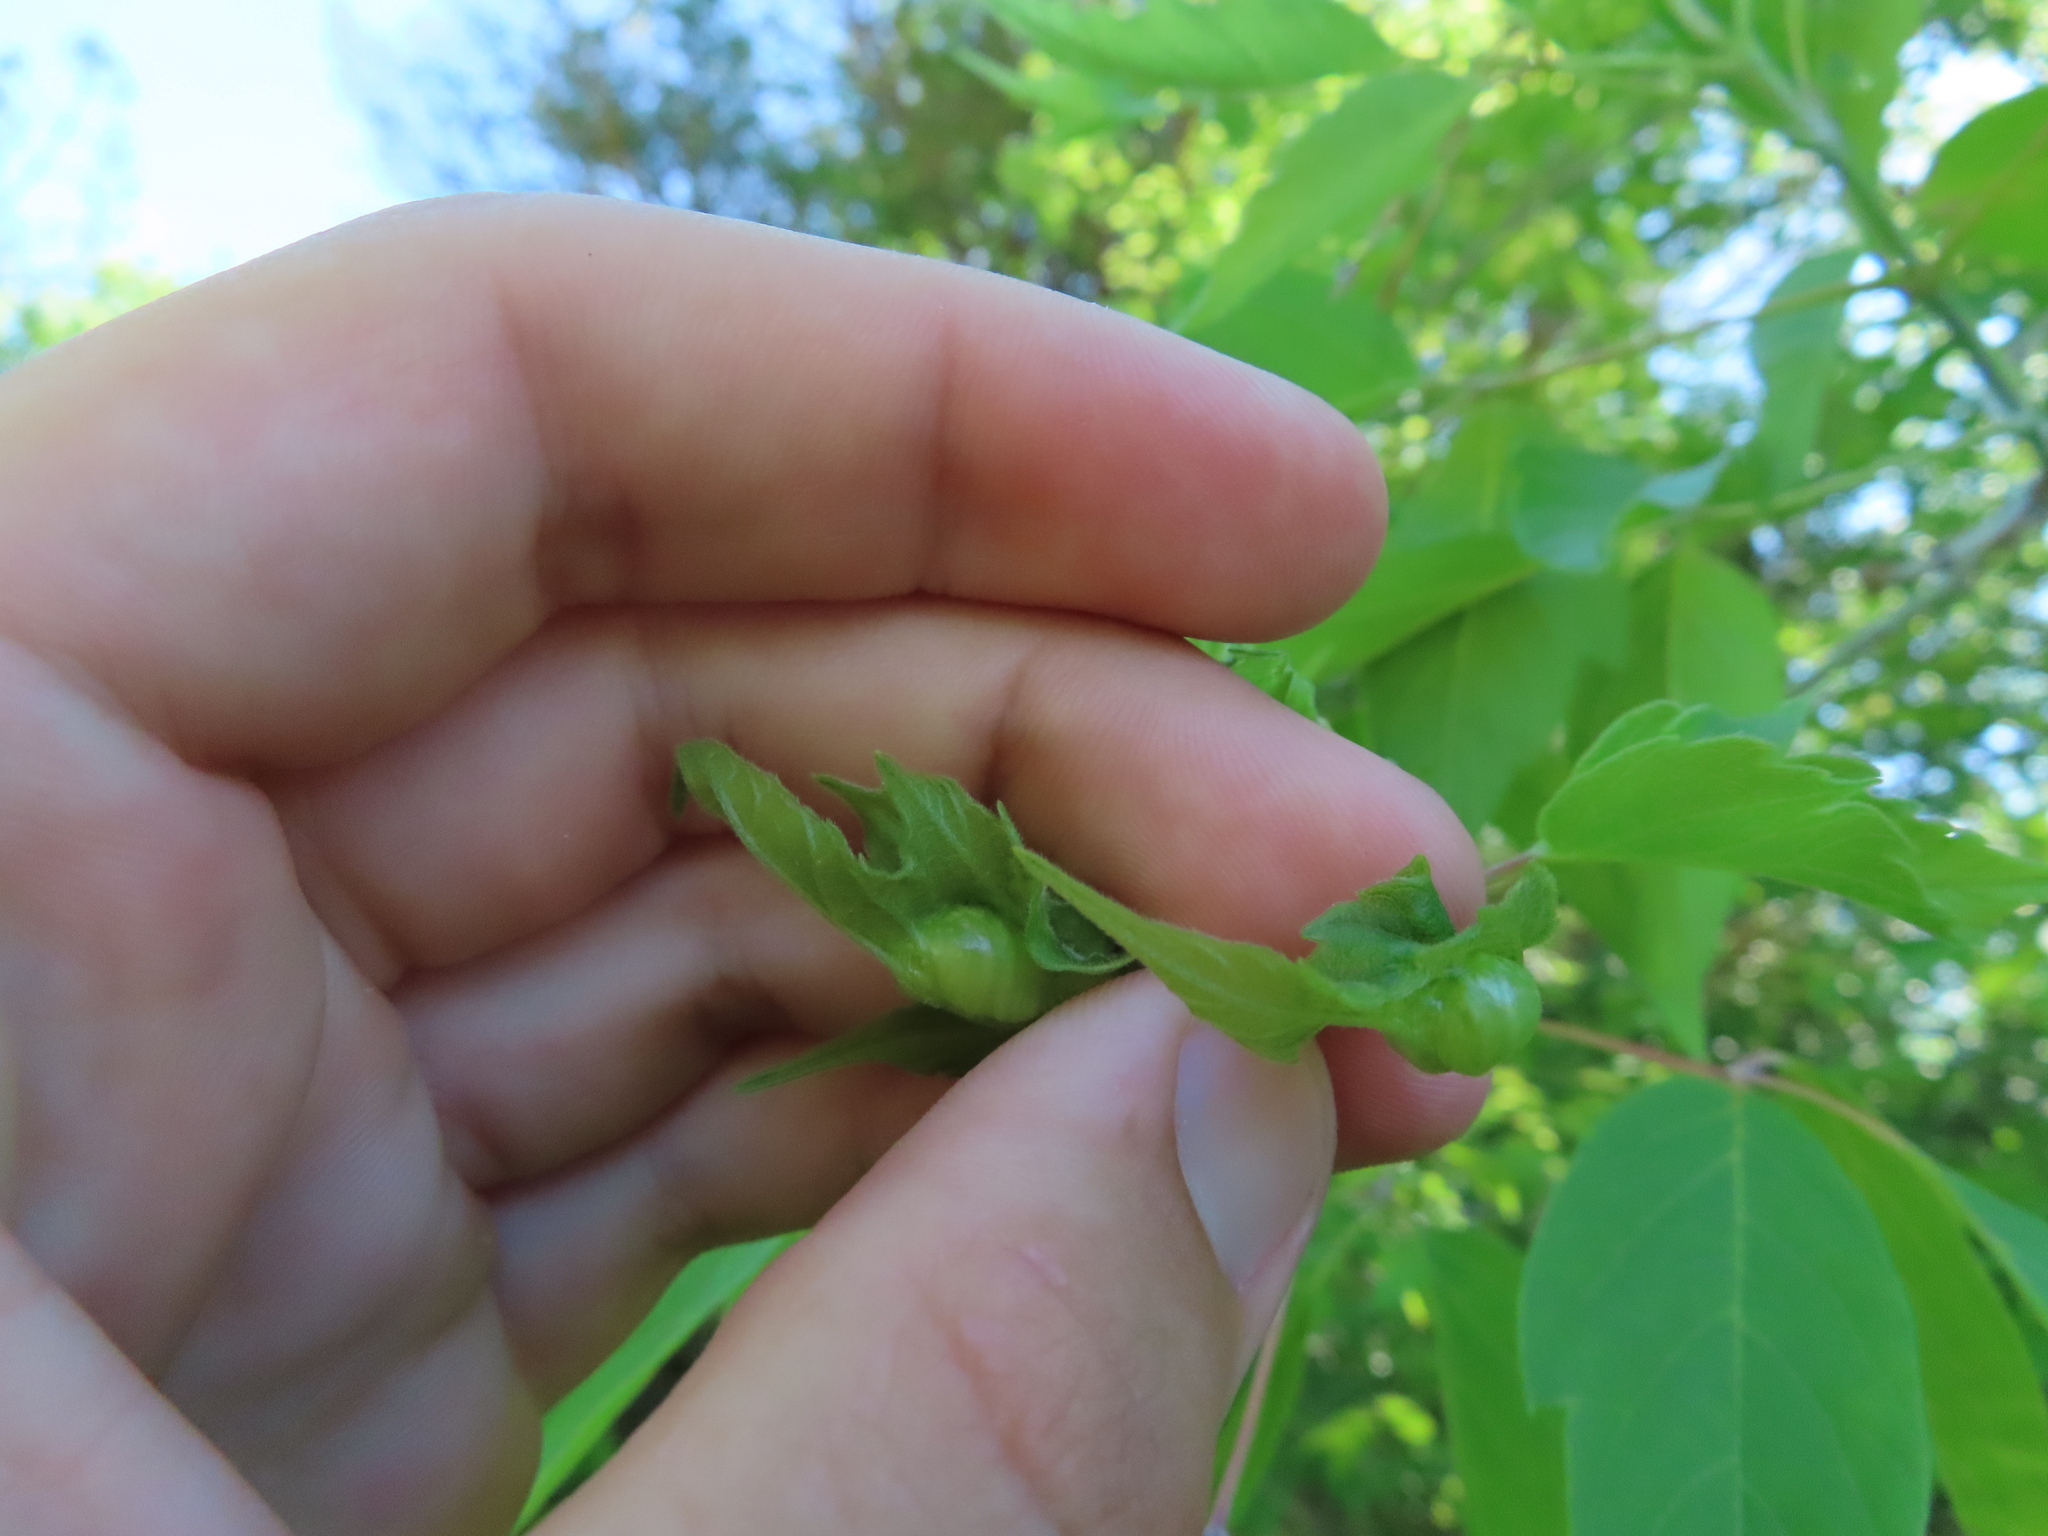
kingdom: Animalia
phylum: Arthropoda
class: Insecta
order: Diptera
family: Cecidomyiidae
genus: Contarinia
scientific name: Contarinia negundinis
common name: Boxelder budgall midge
